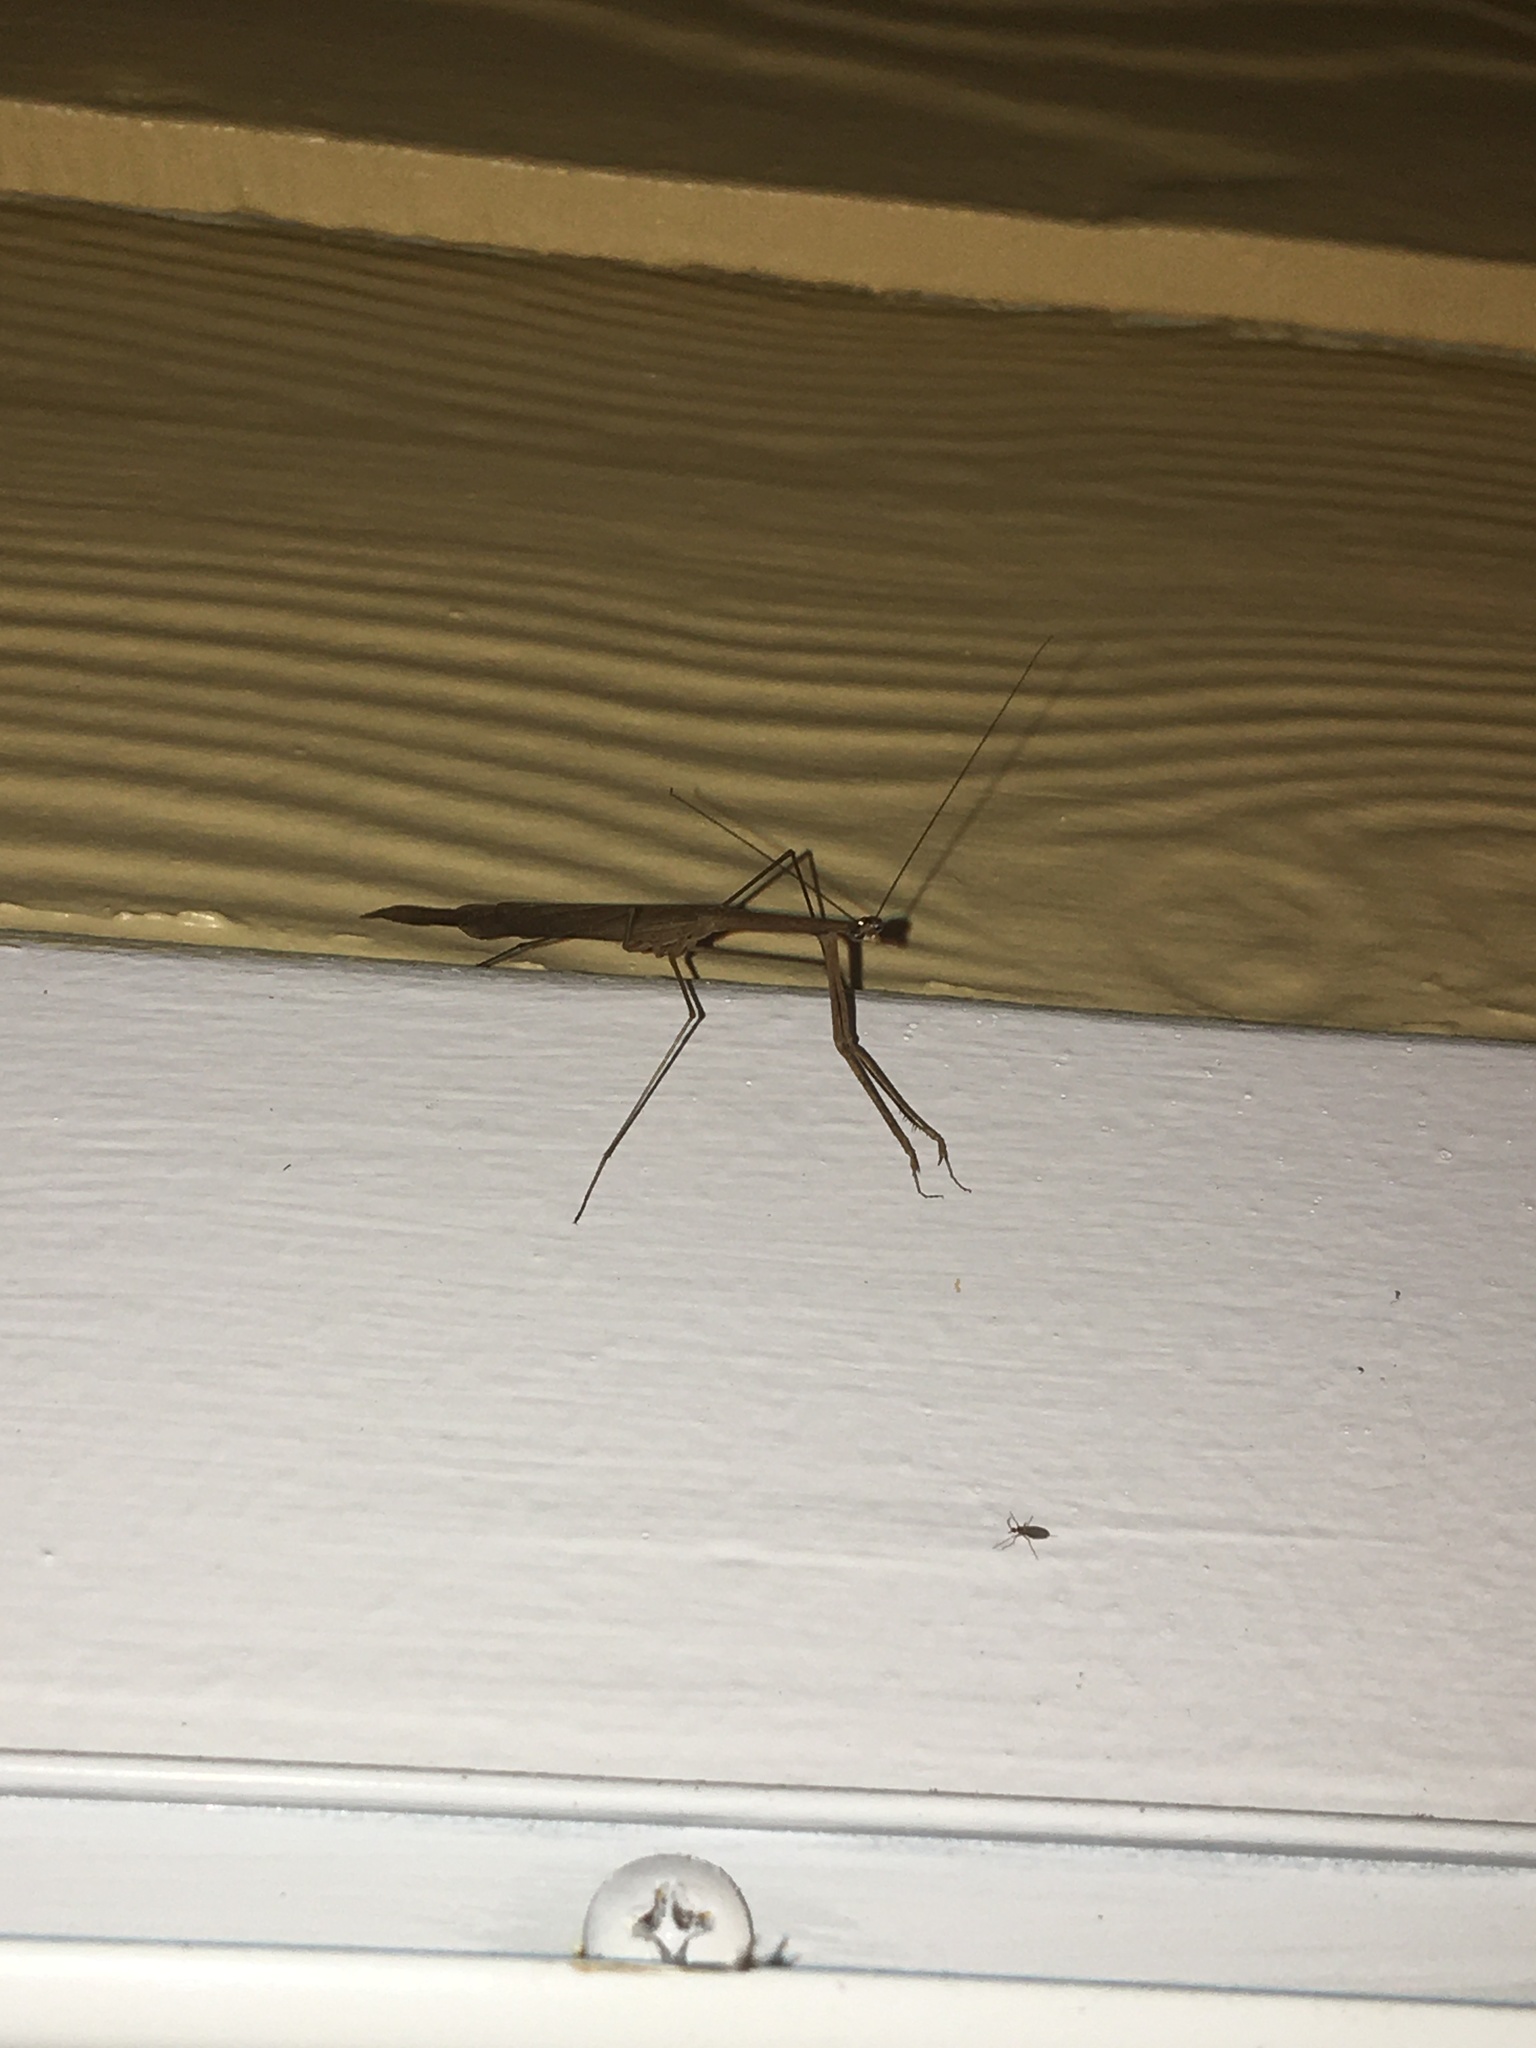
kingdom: Animalia
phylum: Arthropoda
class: Insecta
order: Mantodea
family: Thespidae
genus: Thesprotia
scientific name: Thesprotia graminis
